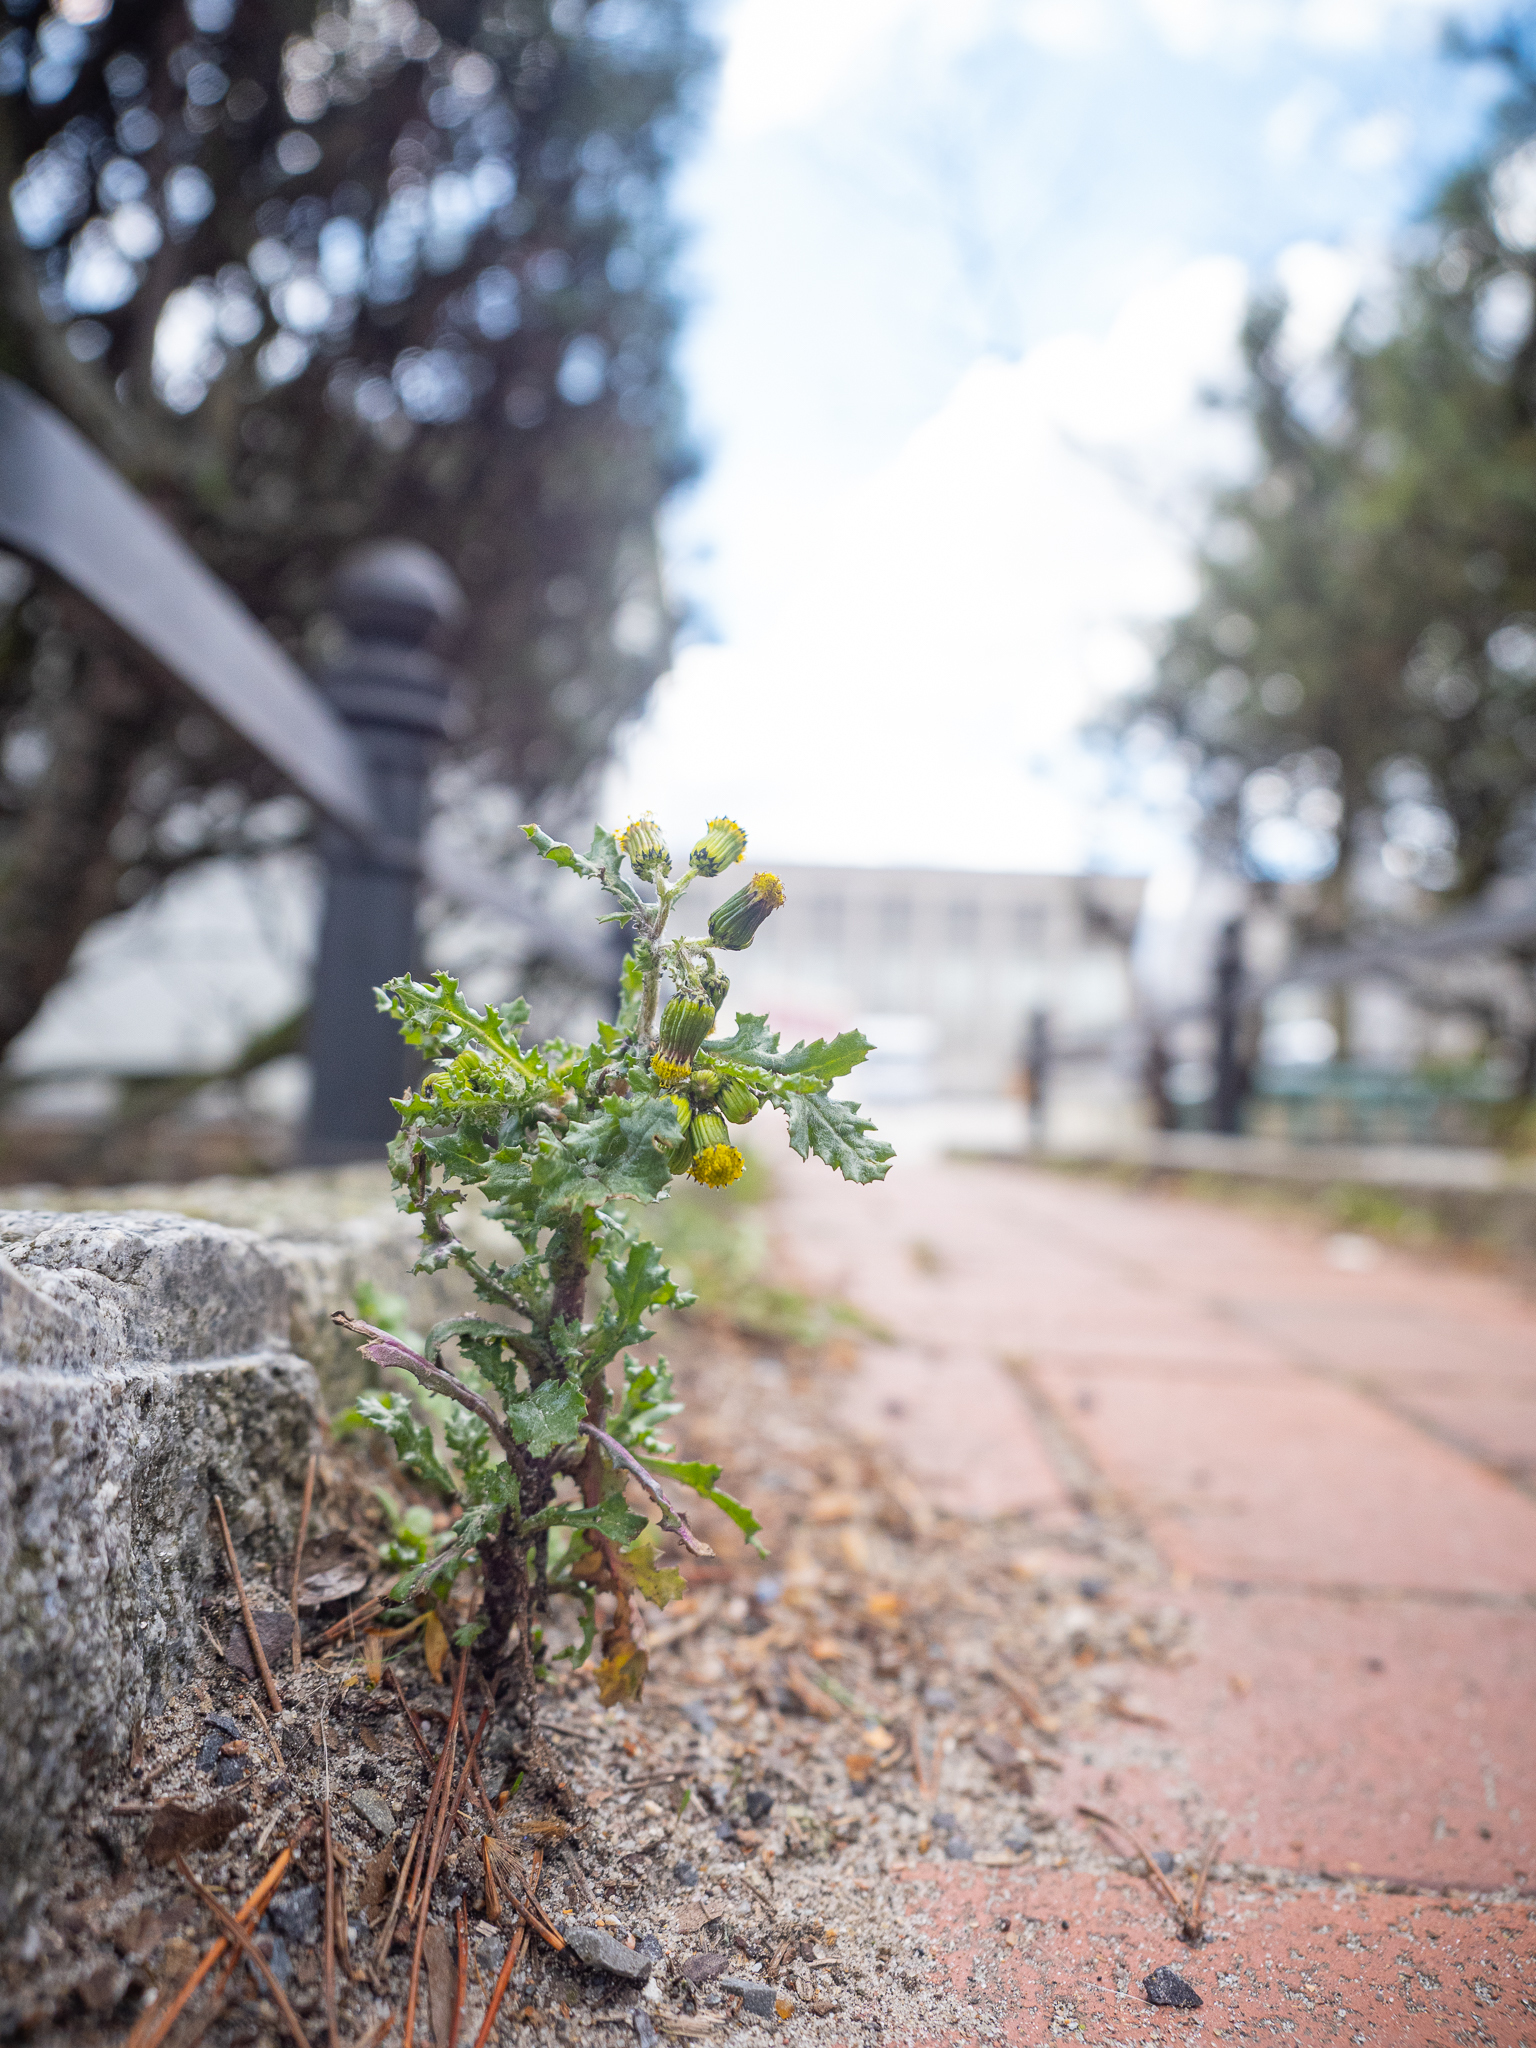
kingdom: Plantae
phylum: Tracheophyta
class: Magnoliopsida
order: Asterales
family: Asteraceae
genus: Senecio
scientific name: Senecio vulgaris
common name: Old-man-in-the-spring
